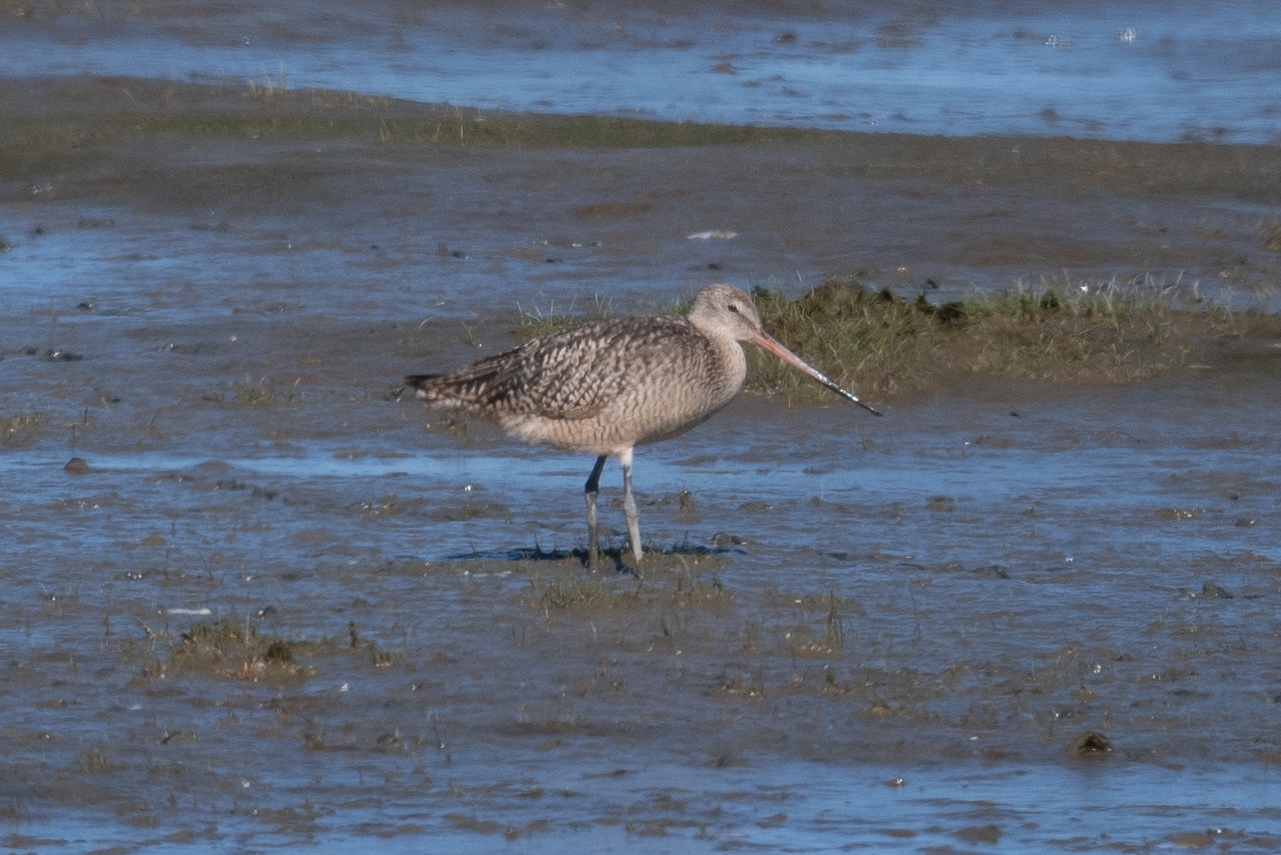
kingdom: Animalia
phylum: Chordata
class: Aves
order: Charadriiformes
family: Scolopacidae
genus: Limosa
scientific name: Limosa fedoa
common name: Marbled godwit
